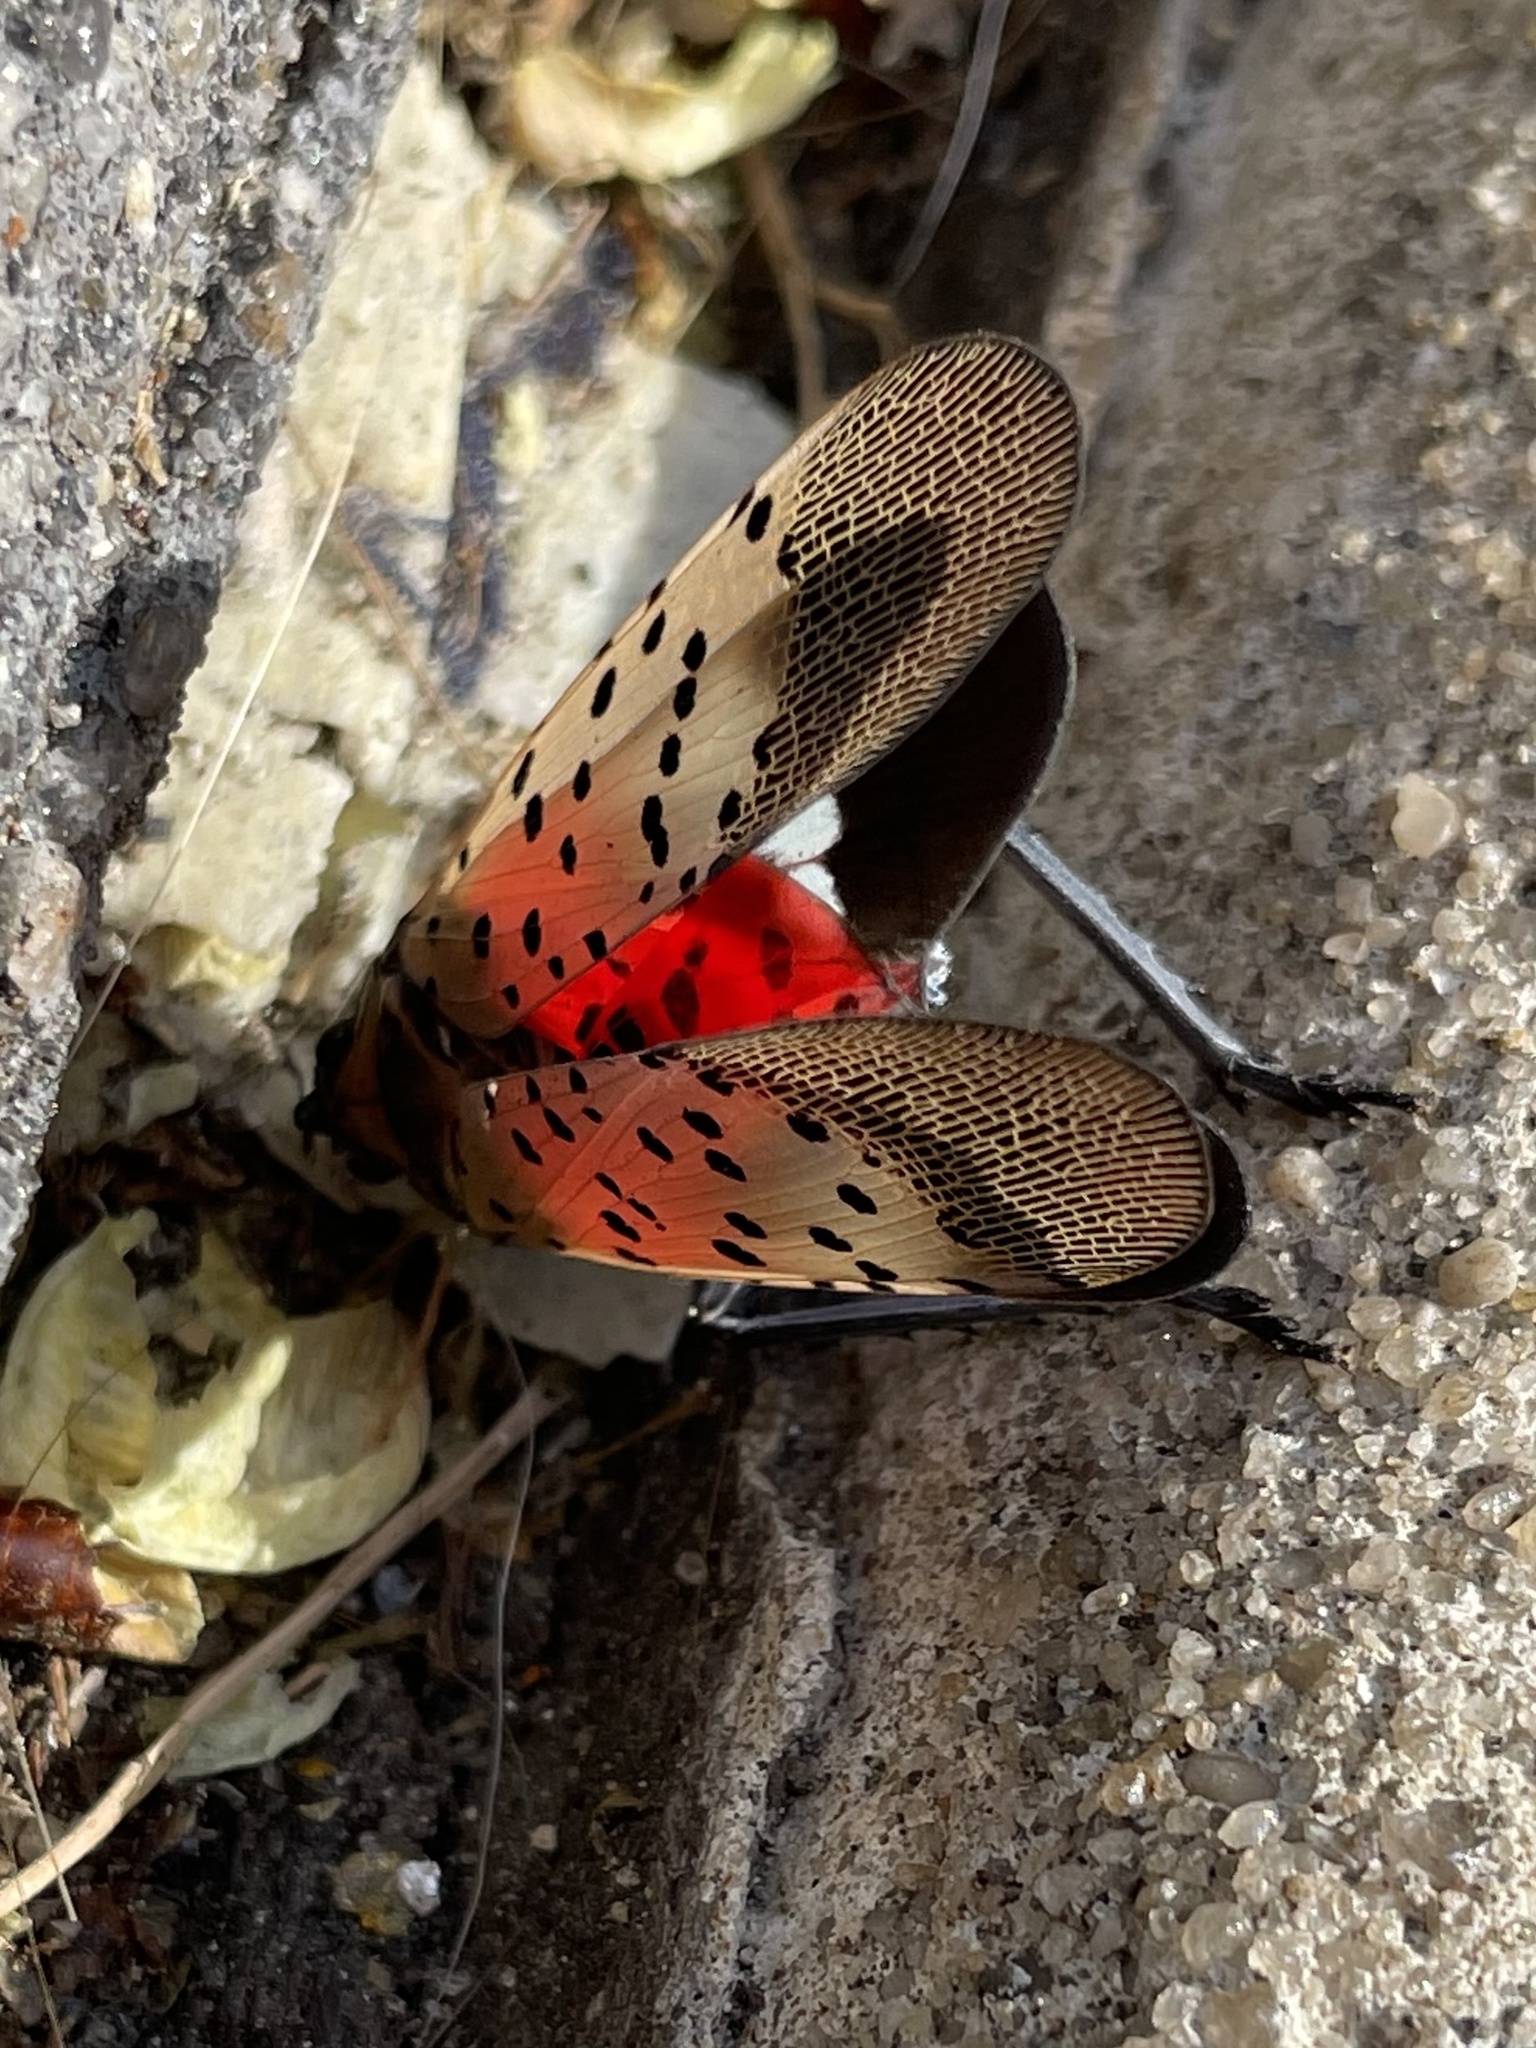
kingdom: Animalia
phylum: Arthropoda
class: Insecta
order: Hemiptera
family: Fulgoridae
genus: Lycorma
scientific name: Lycorma delicatula
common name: Spotted lanternfly
